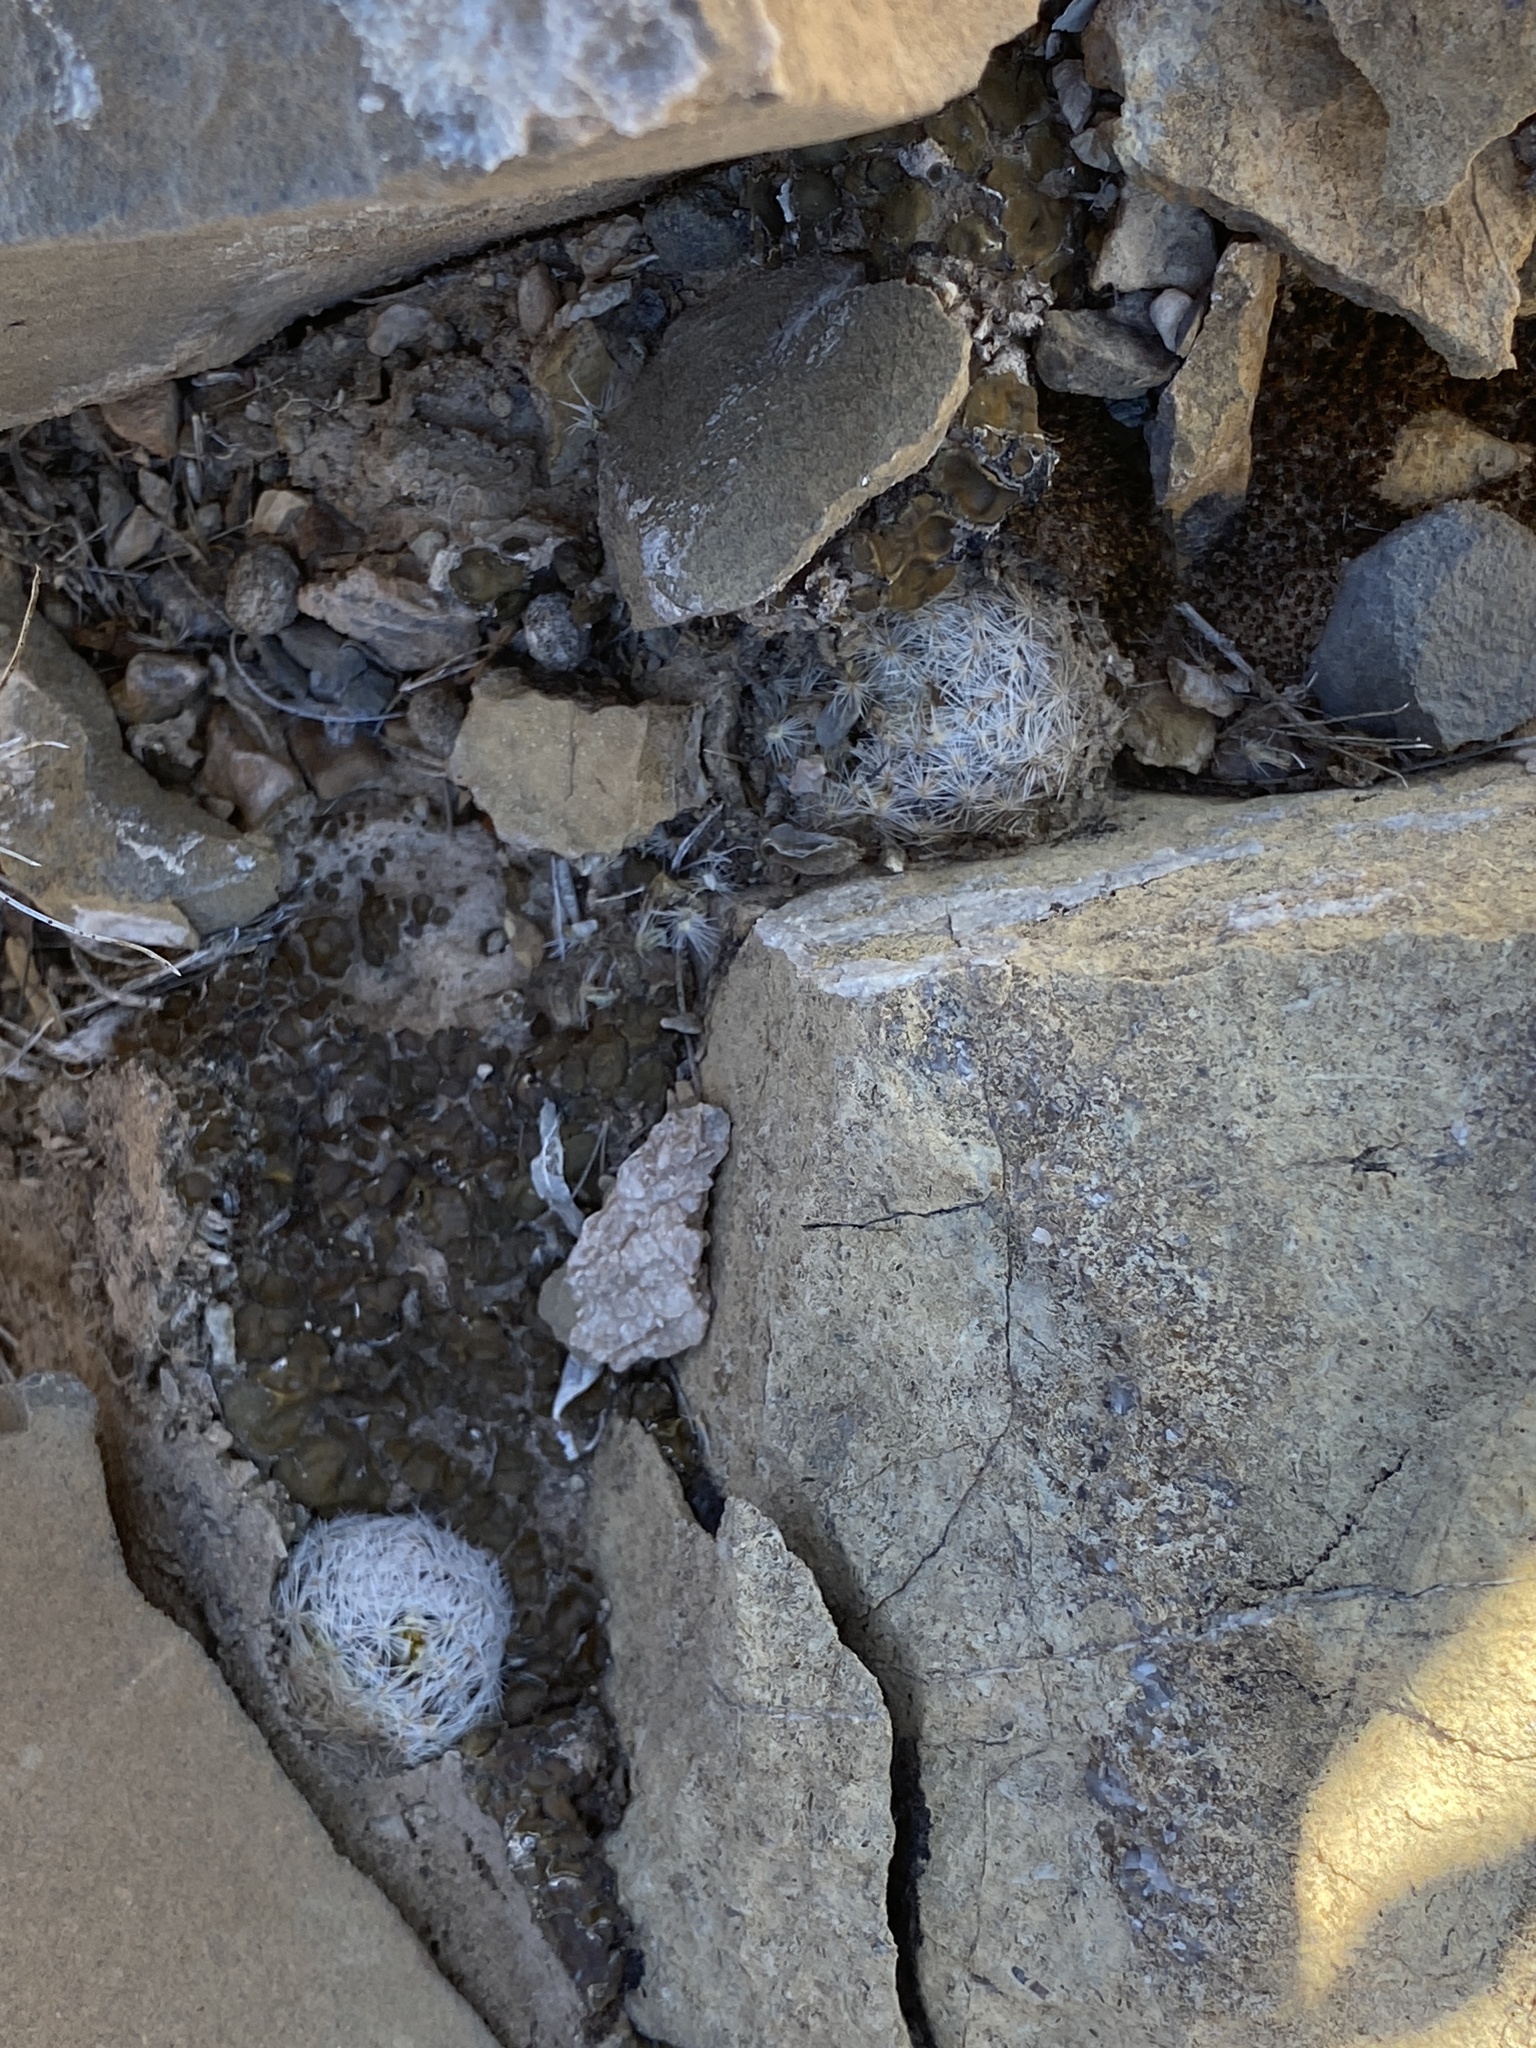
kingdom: Plantae
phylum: Tracheophyta
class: Magnoliopsida
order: Caryophyllales
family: Cactaceae
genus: Mammillaria
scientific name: Mammillaria lasiacantha
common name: Lace-spine nipple cactus
